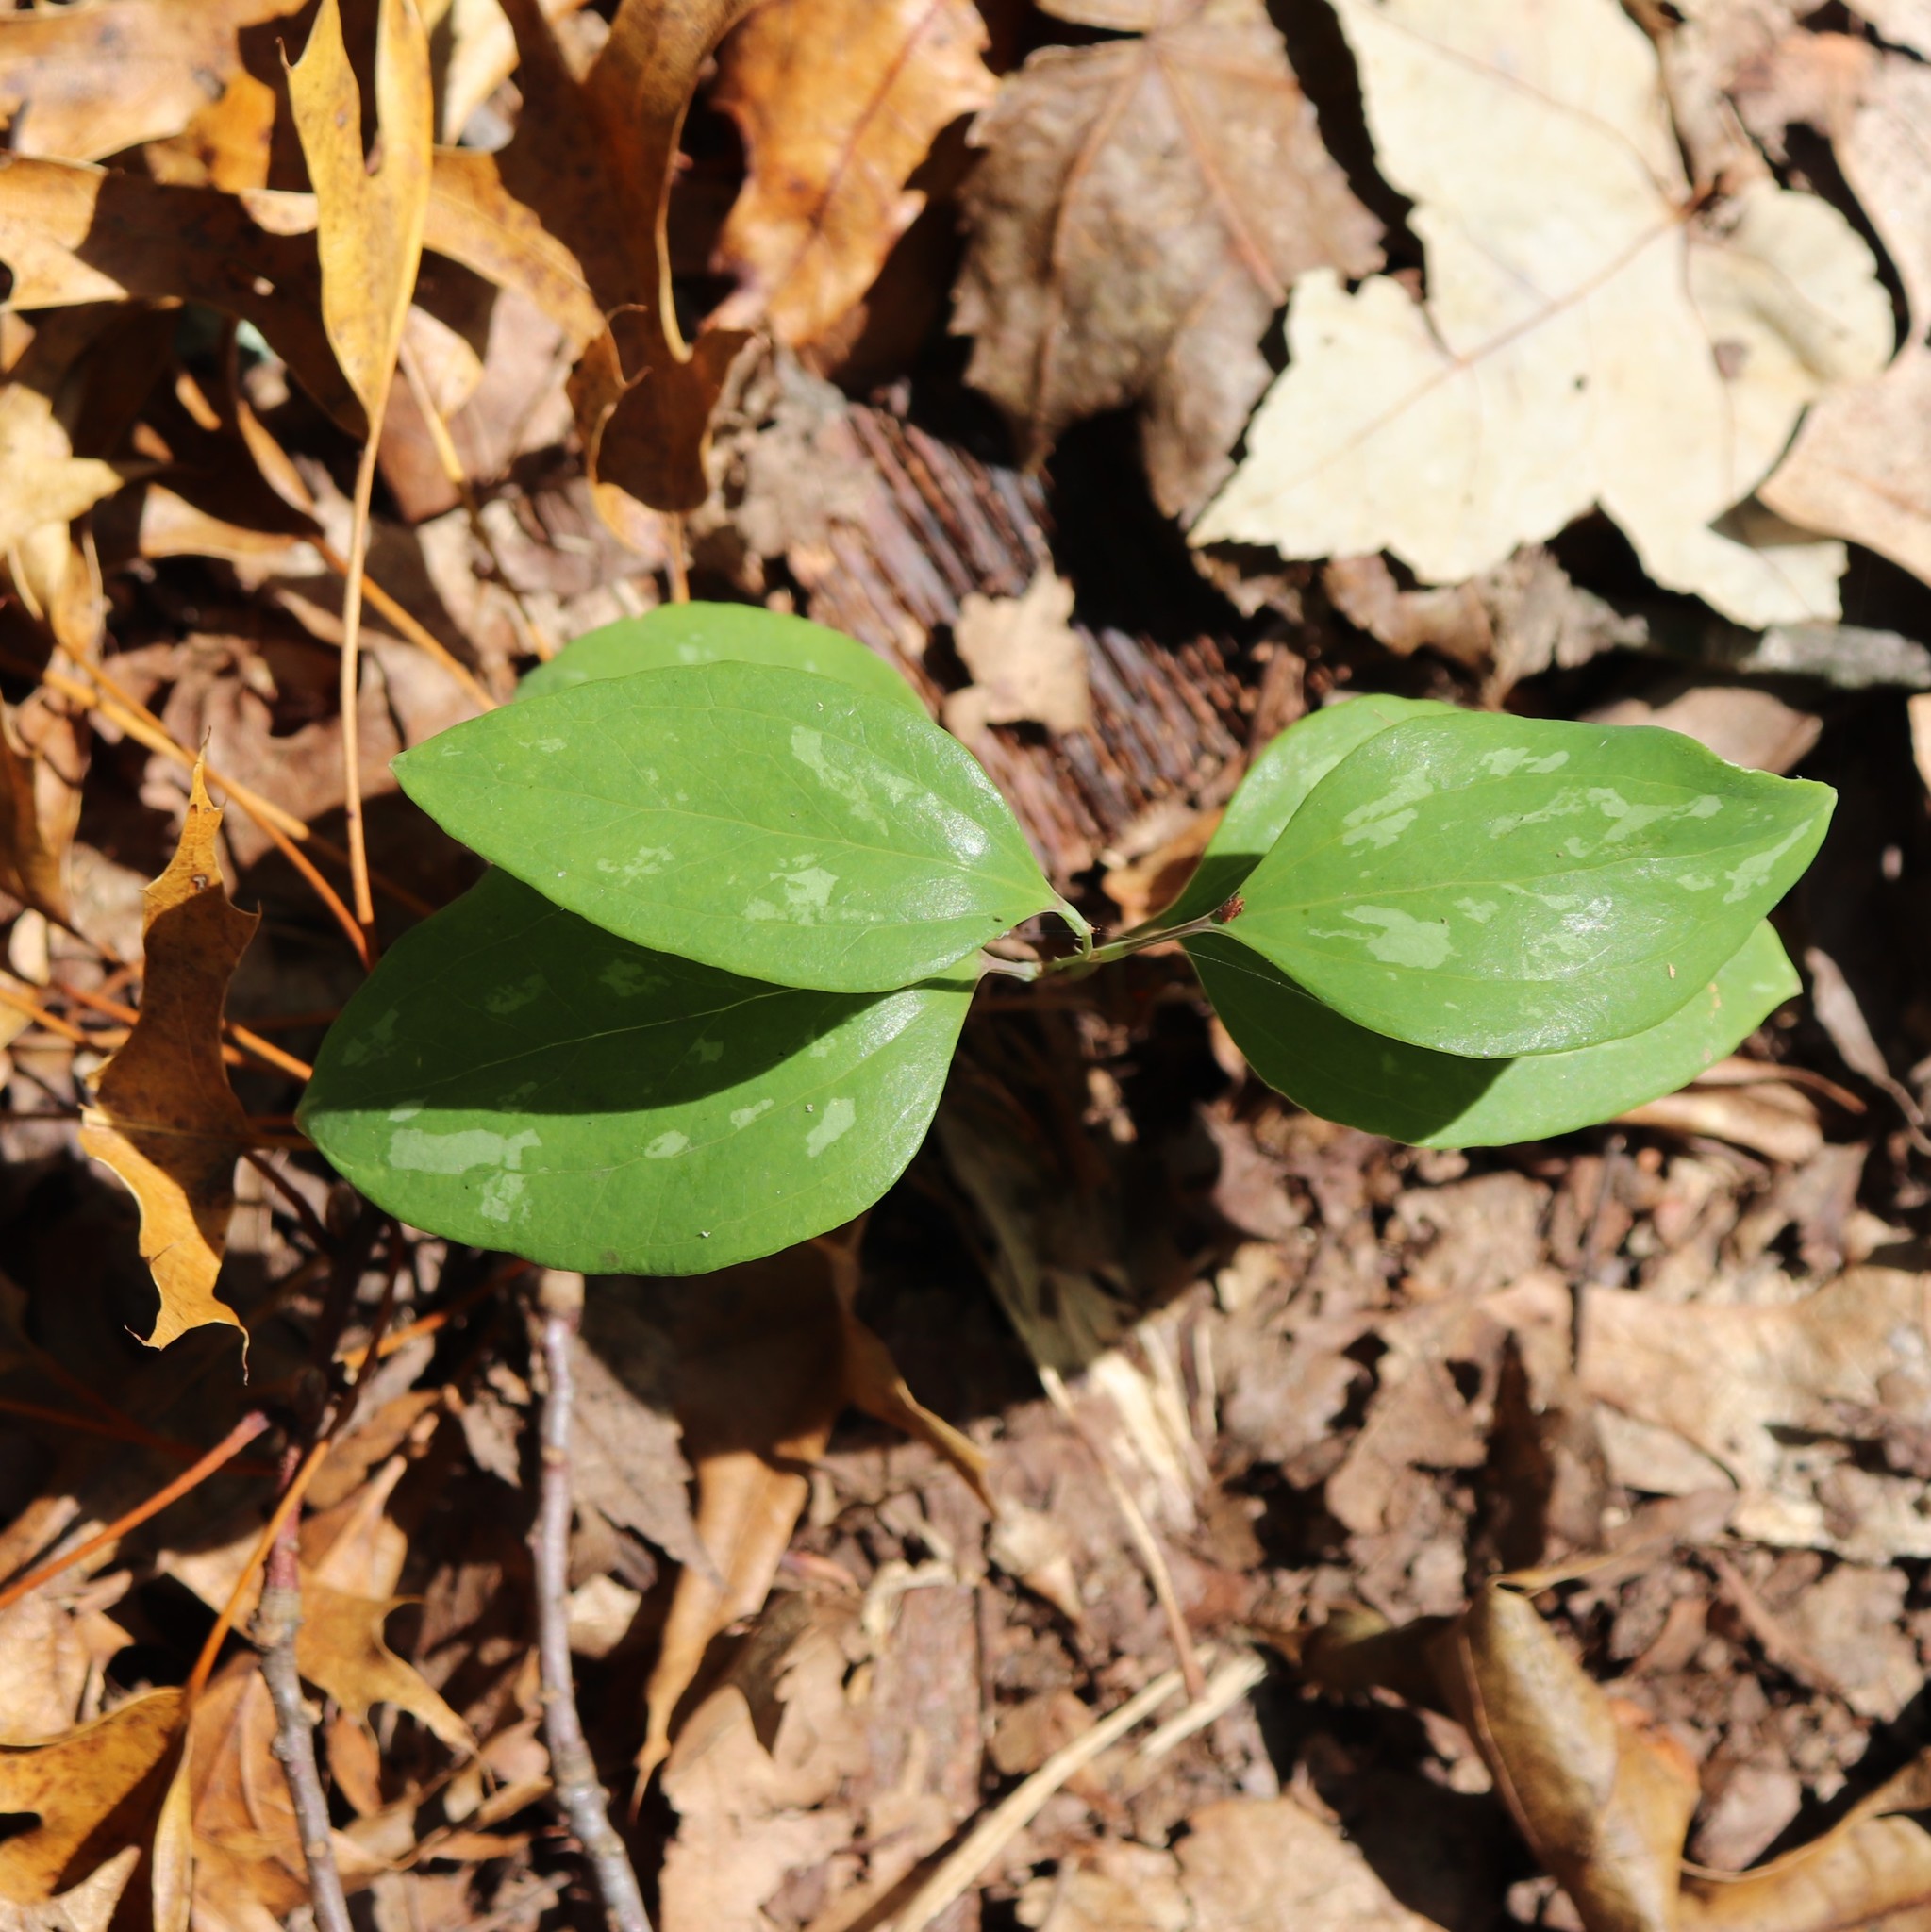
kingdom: Plantae
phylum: Tracheophyta
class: Liliopsida
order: Liliales
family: Smilacaceae
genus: Smilax
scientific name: Smilax glauca
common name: Cat greenbrier
